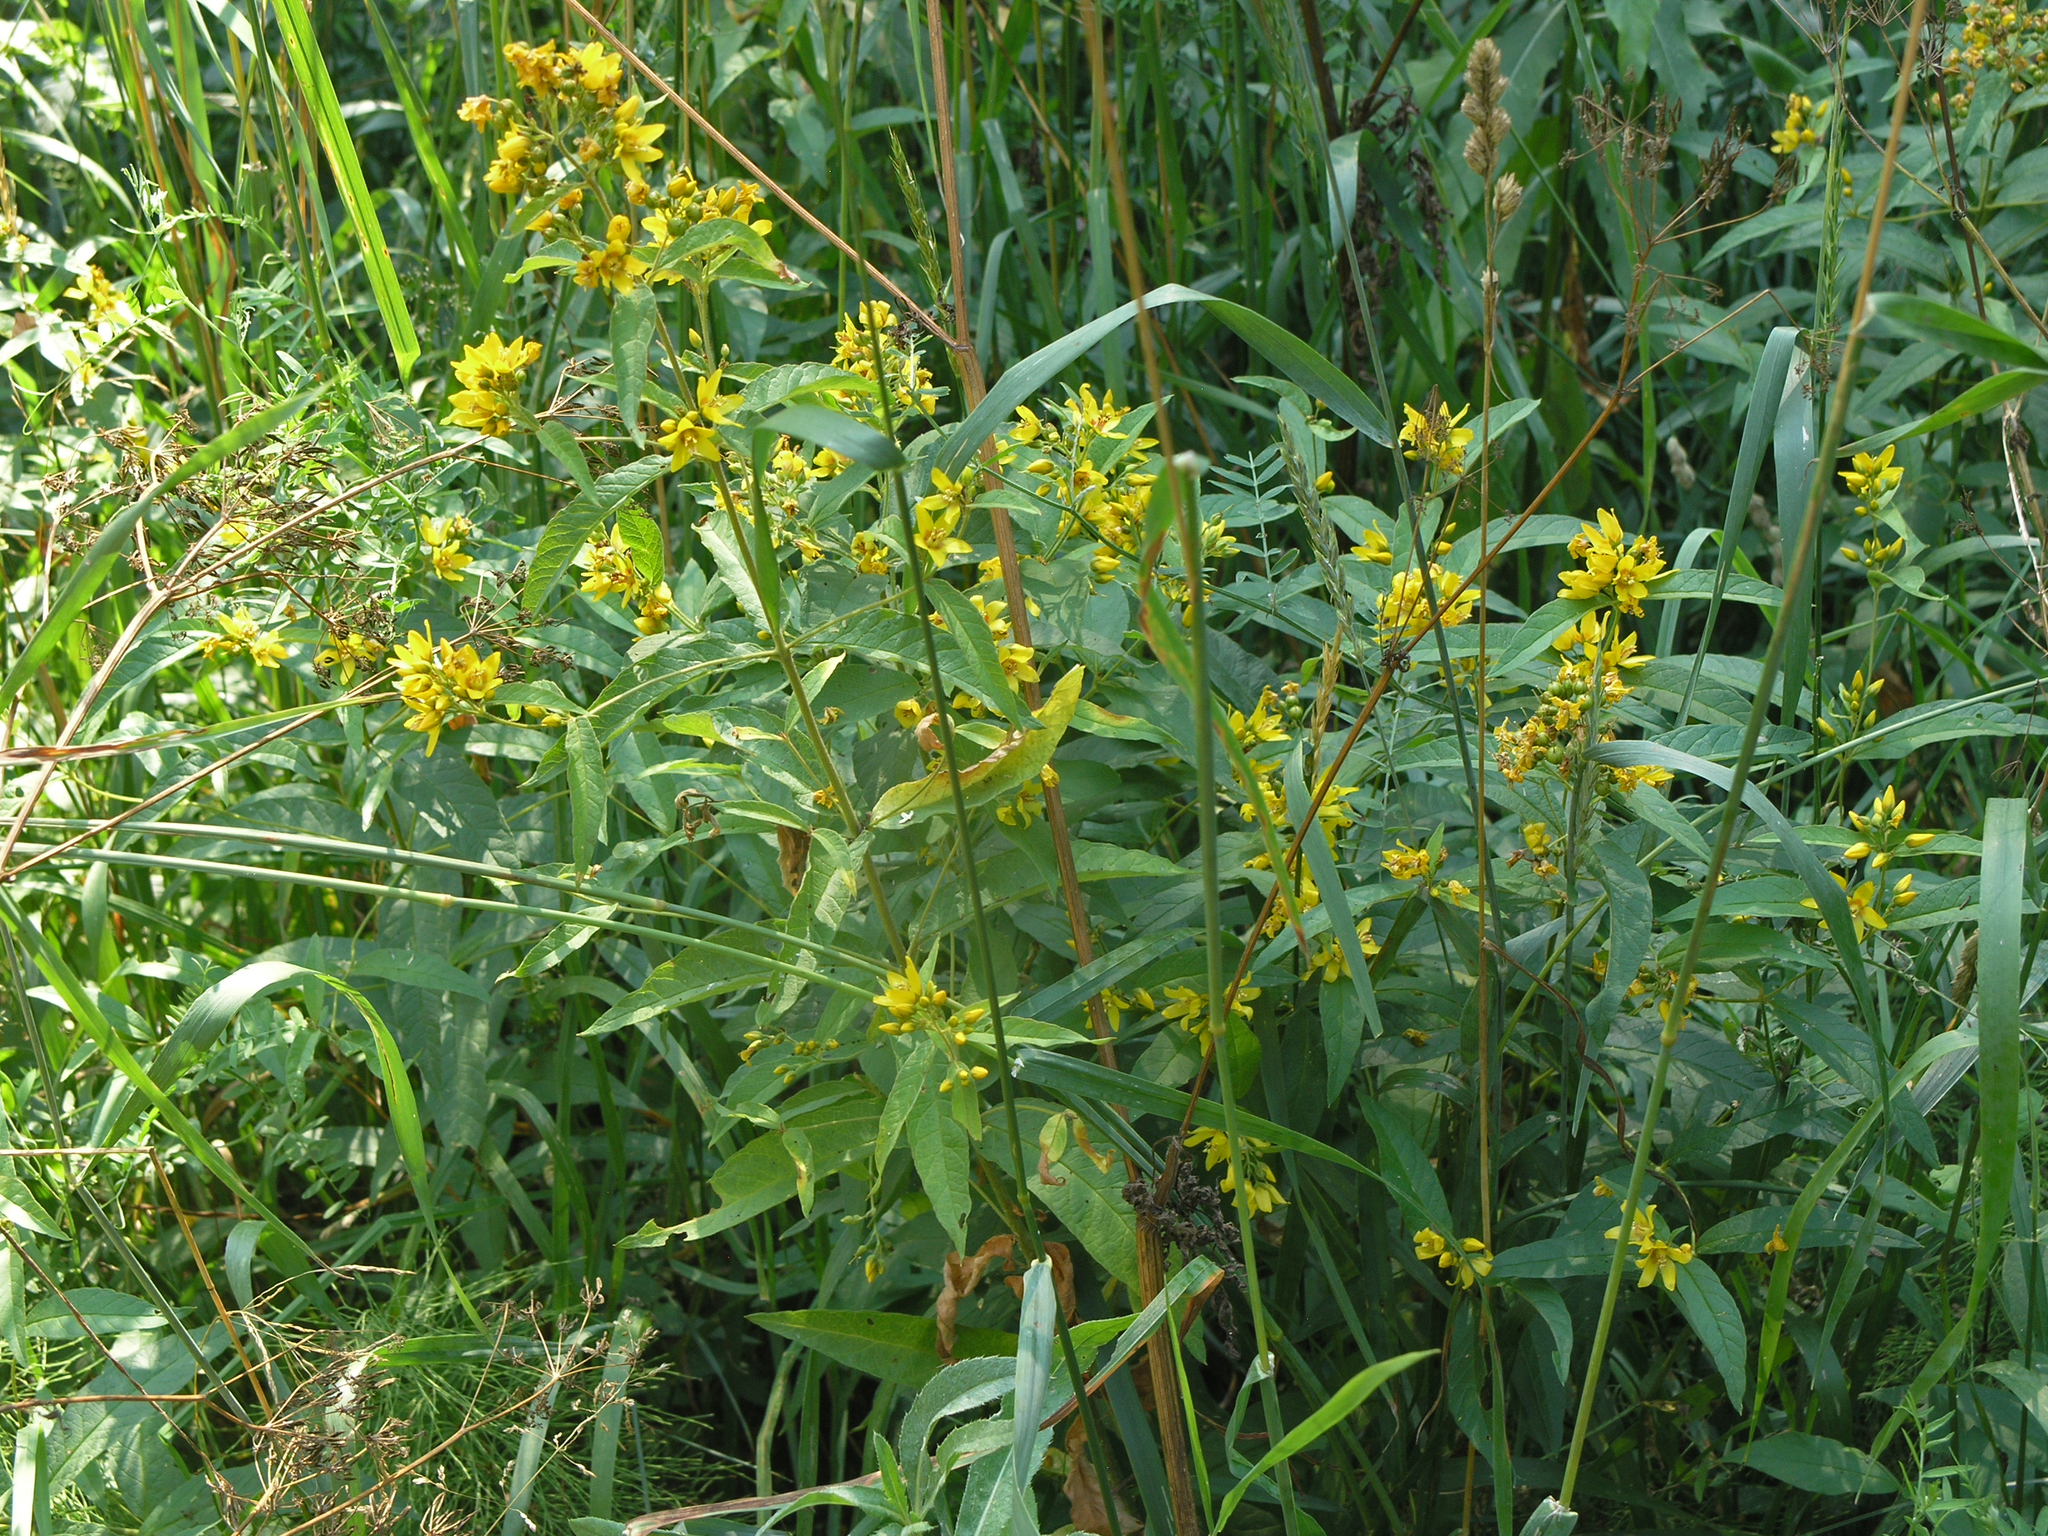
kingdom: Plantae
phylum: Tracheophyta
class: Magnoliopsida
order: Ericales
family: Primulaceae
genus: Lysimachia
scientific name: Lysimachia vulgaris
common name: Yellow loosestrife
